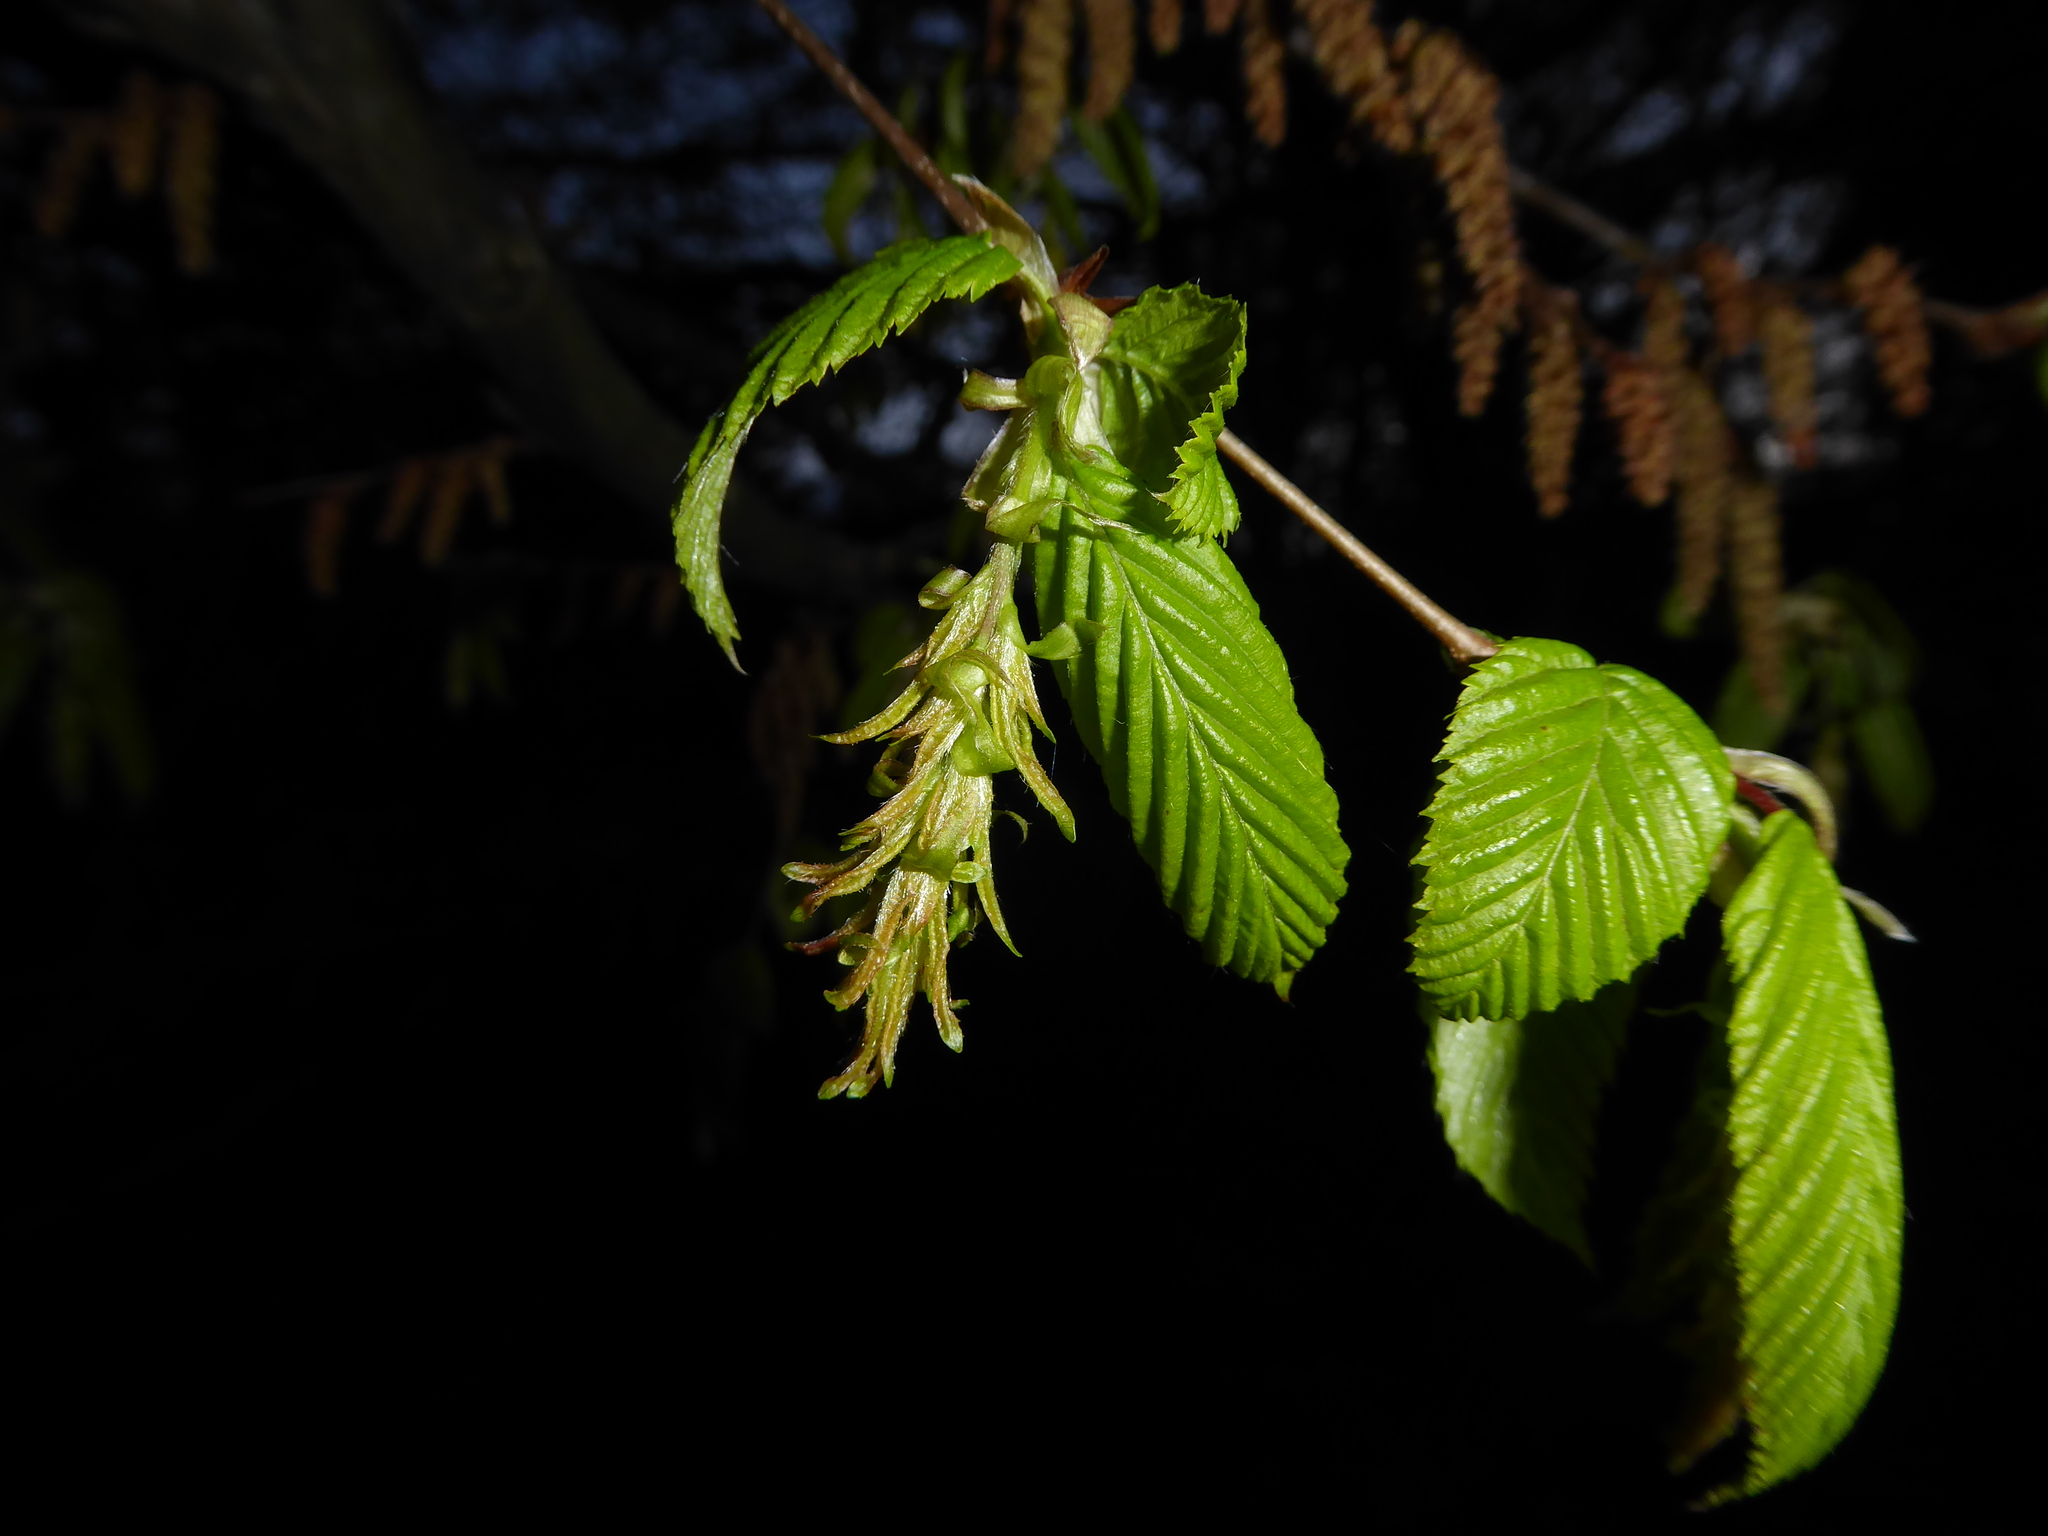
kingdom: Plantae
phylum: Tracheophyta
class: Magnoliopsida
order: Fagales
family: Betulaceae
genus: Carpinus
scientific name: Carpinus betulus
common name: Hornbeam
